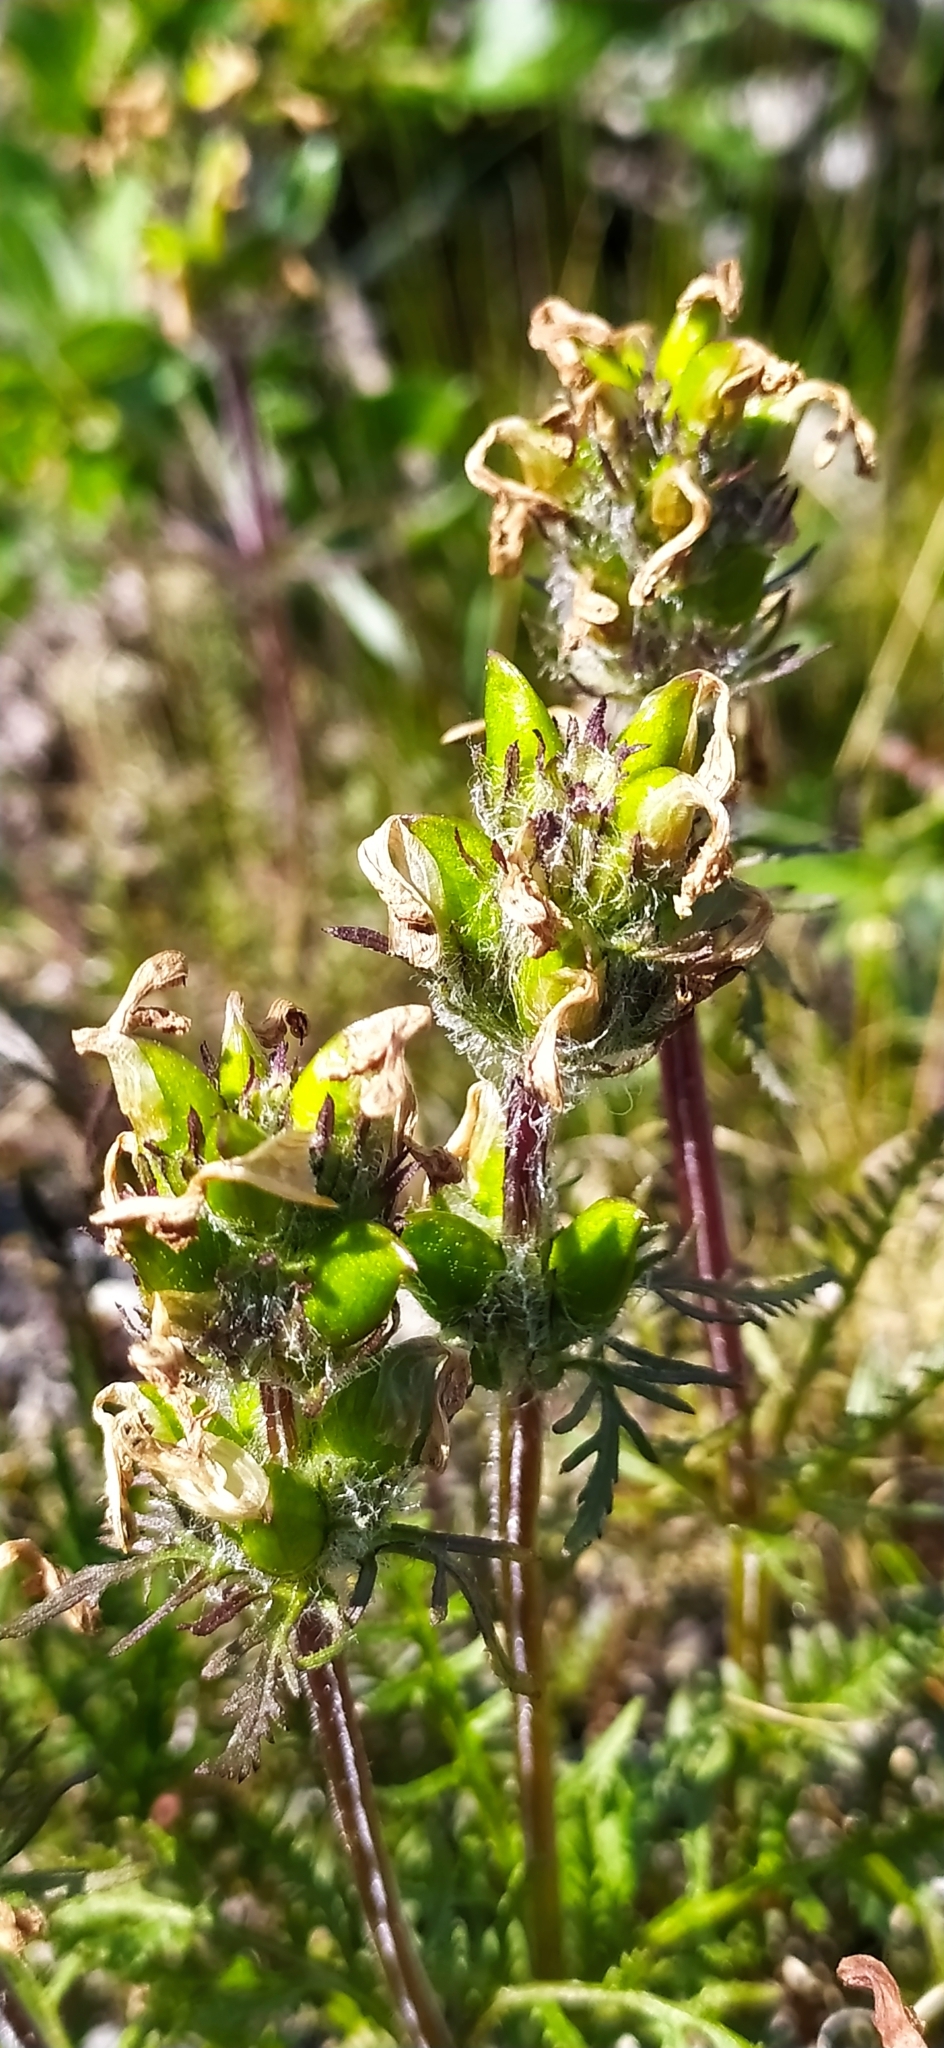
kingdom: Plantae
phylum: Tracheophyta
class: Magnoliopsida
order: Lamiales
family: Orobanchaceae
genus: Pedicularis
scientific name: Pedicularis oederi
